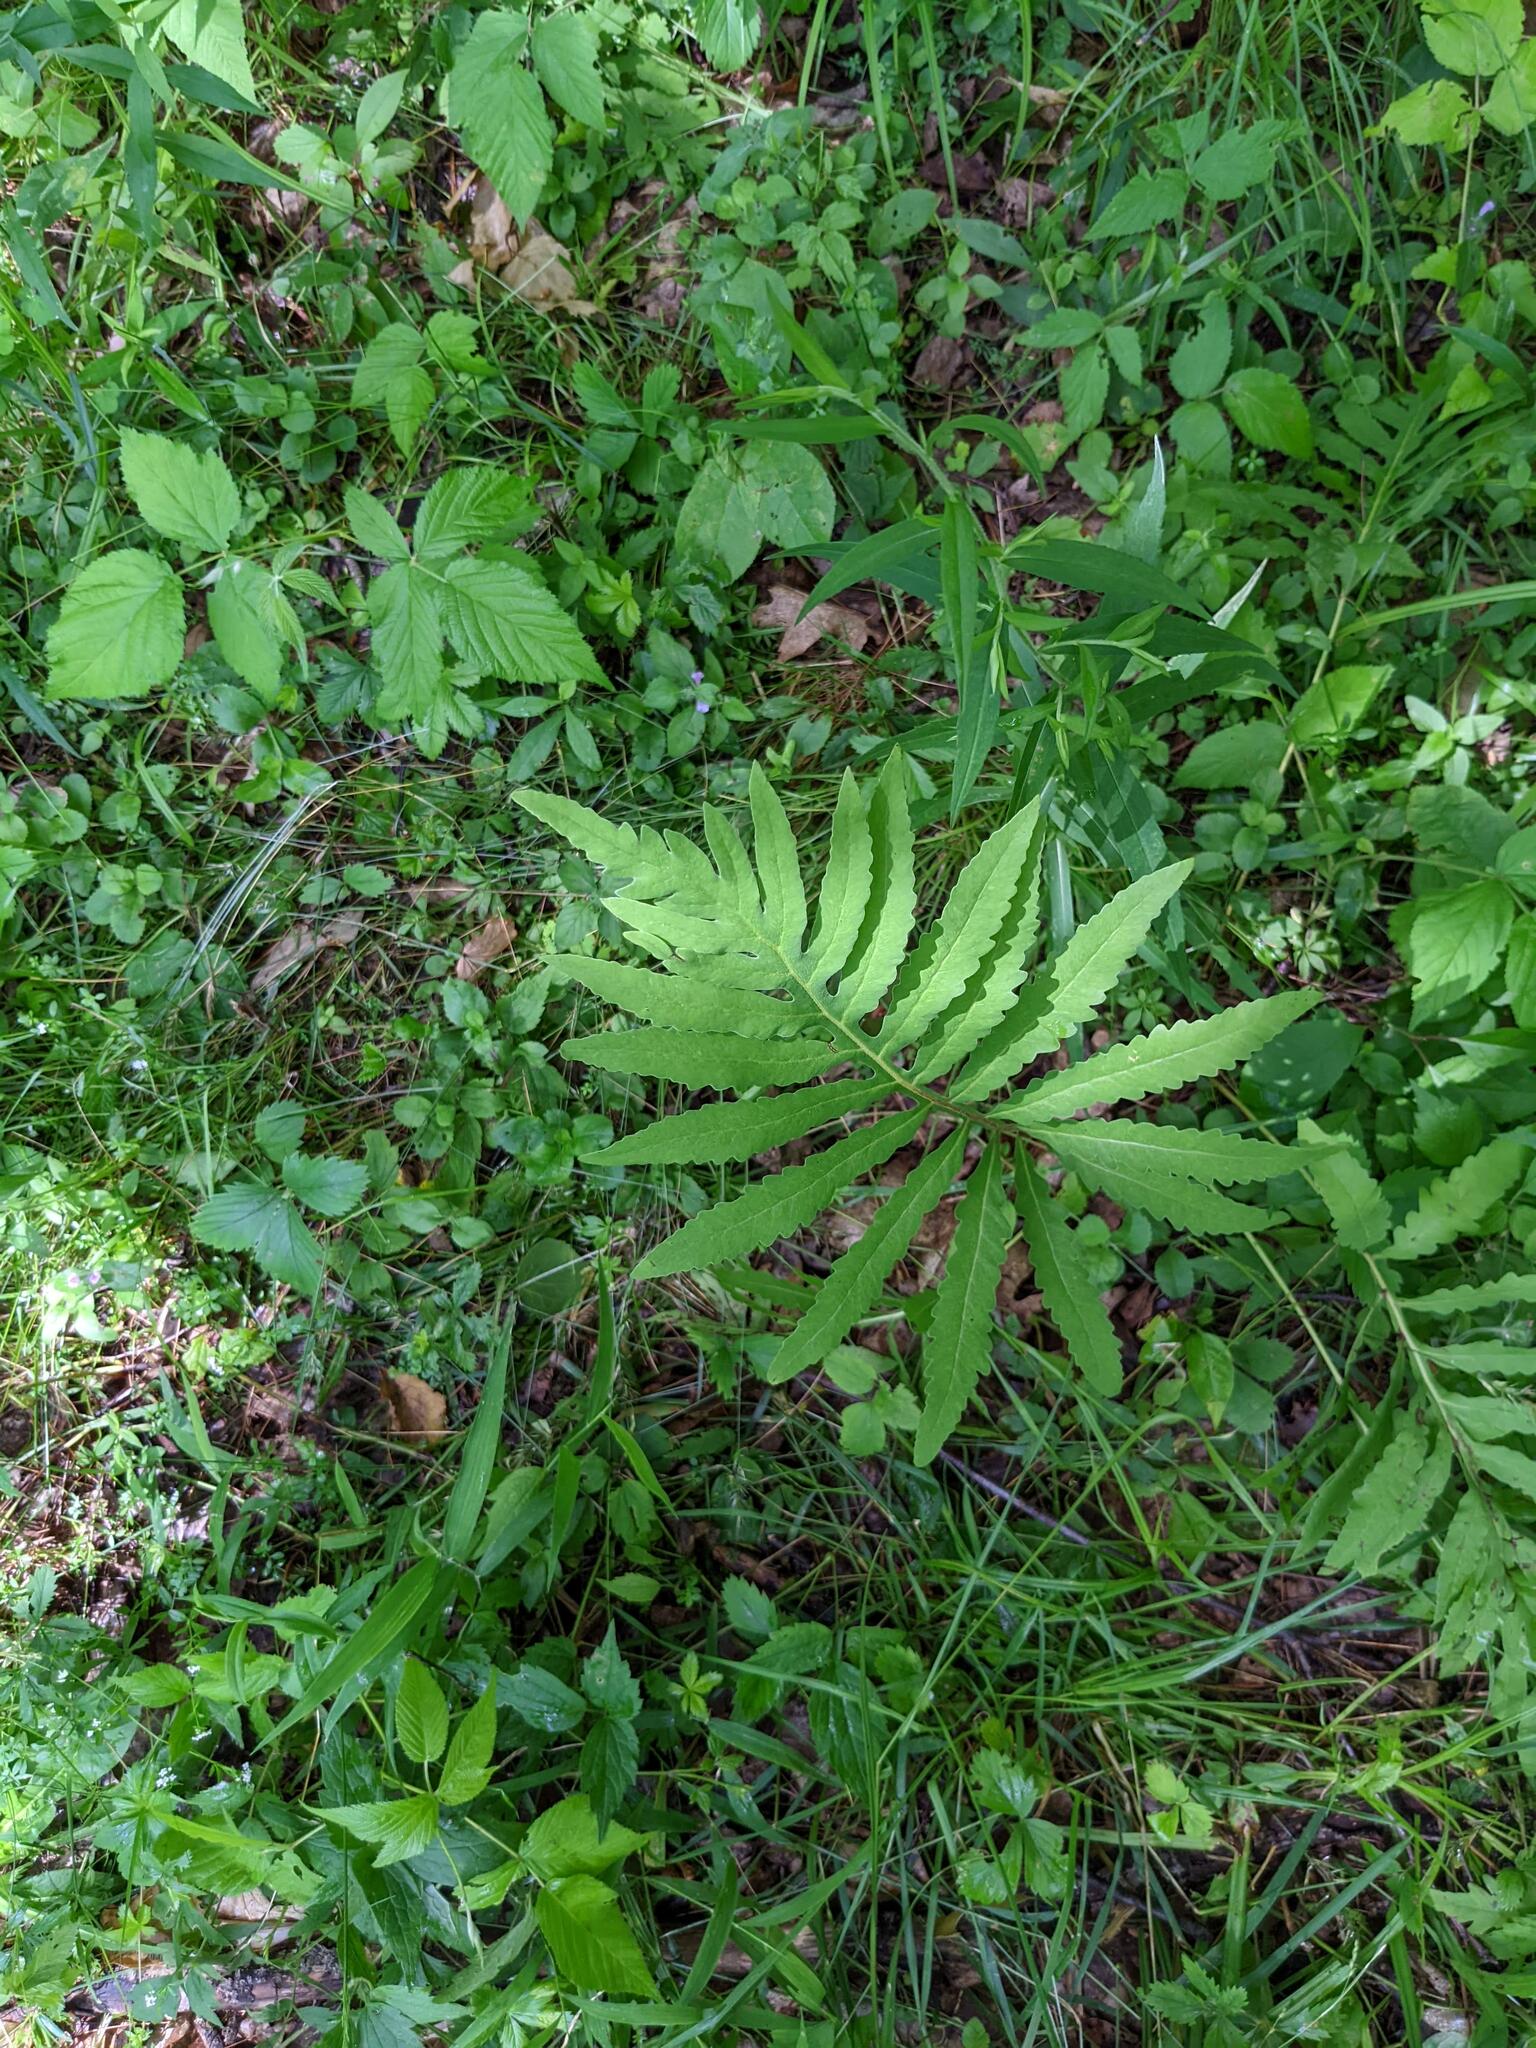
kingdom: Plantae
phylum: Tracheophyta
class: Polypodiopsida
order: Polypodiales
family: Onocleaceae
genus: Onoclea
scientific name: Onoclea sensibilis
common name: Sensitive fern
